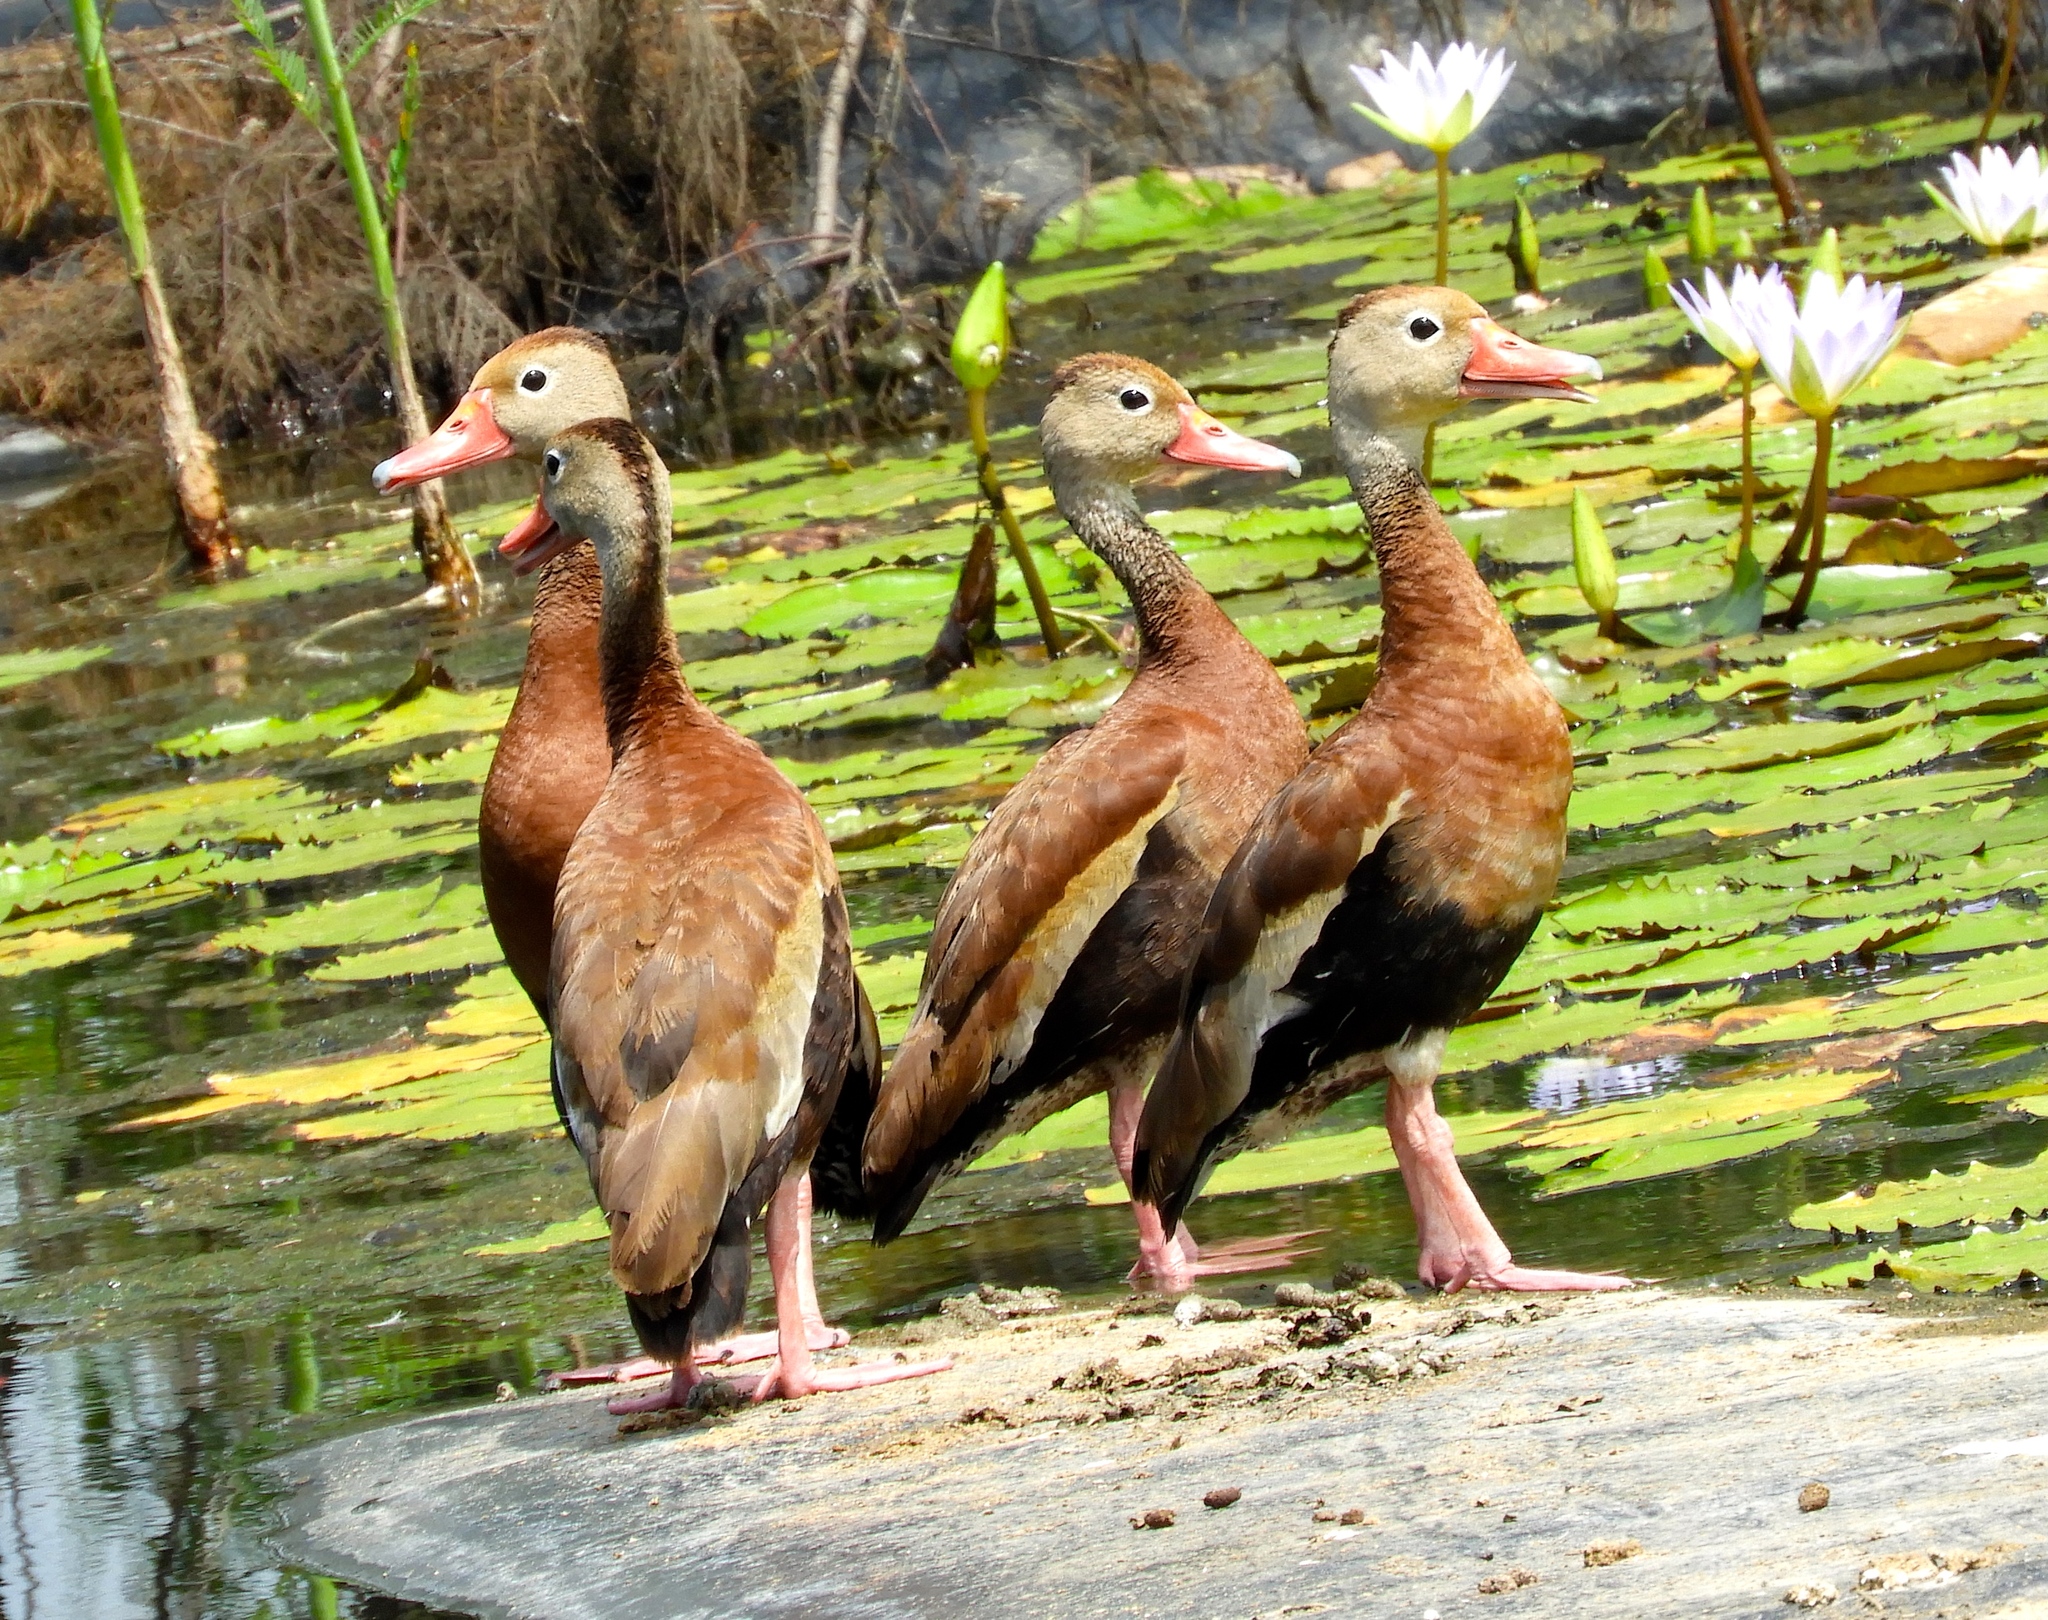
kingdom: Animalia
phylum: Chordata
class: Aves
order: Anseriformes
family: Anatidae
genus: Dendrocygna
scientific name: Dendrocygna autumnalis
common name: Black-bellied whistling duck
